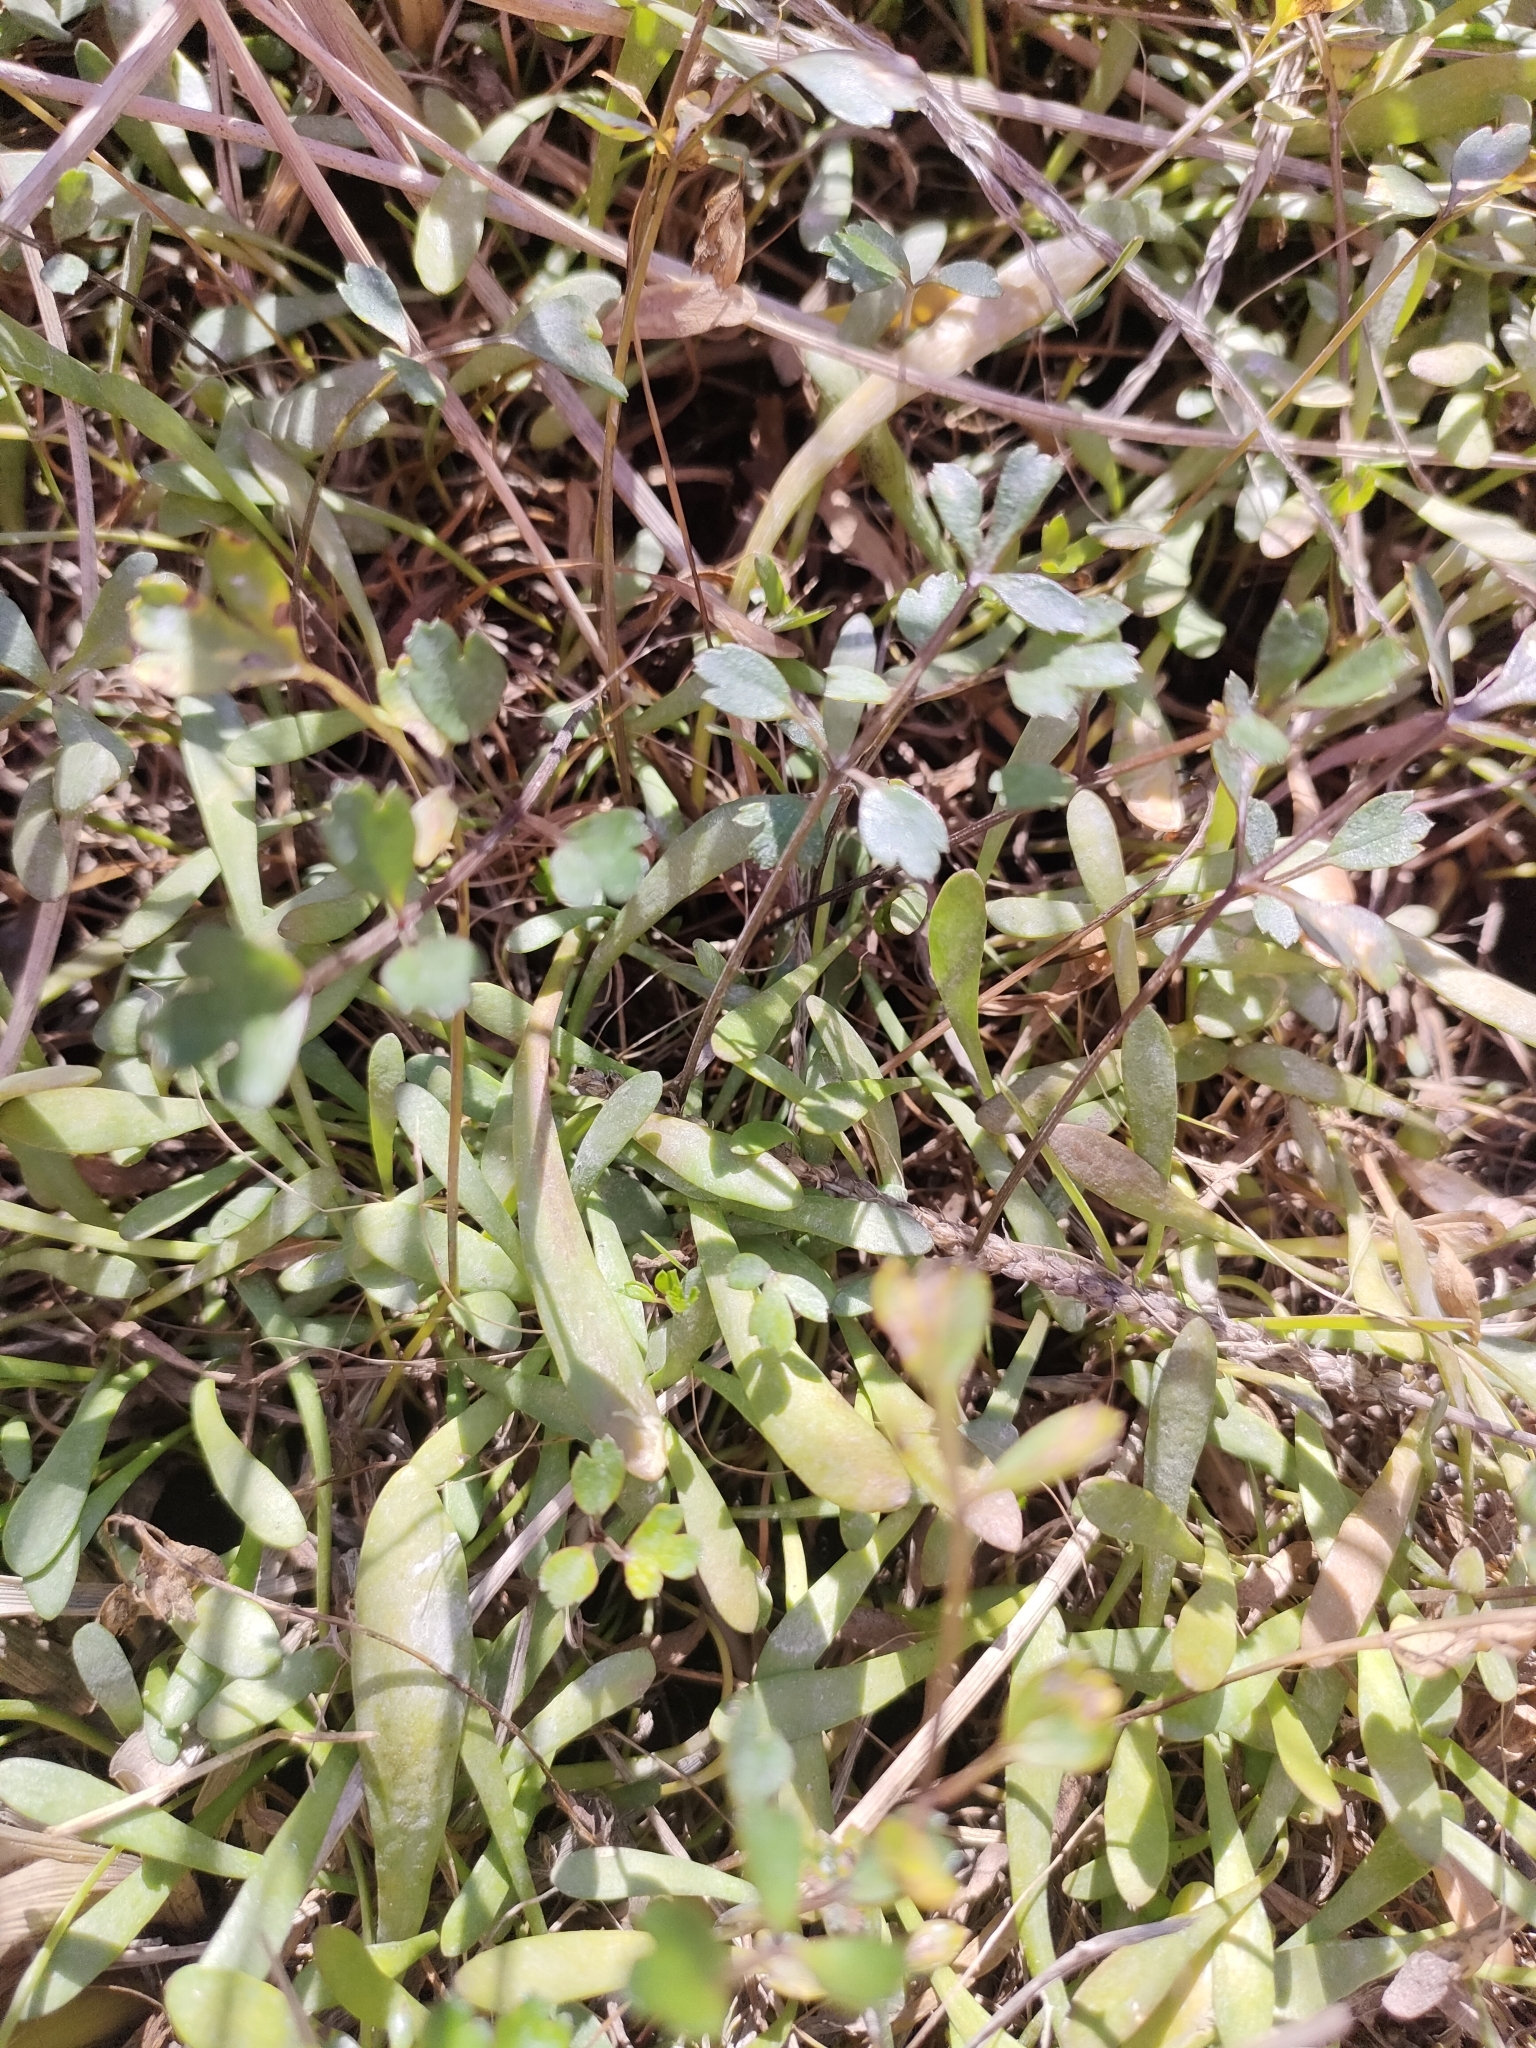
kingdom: Plantae
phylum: Tracheophyta
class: Magnoliopsida
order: Apiales
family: Apiaceae
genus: Apium
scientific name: Apium prostratum
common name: Prostrate marshwort
